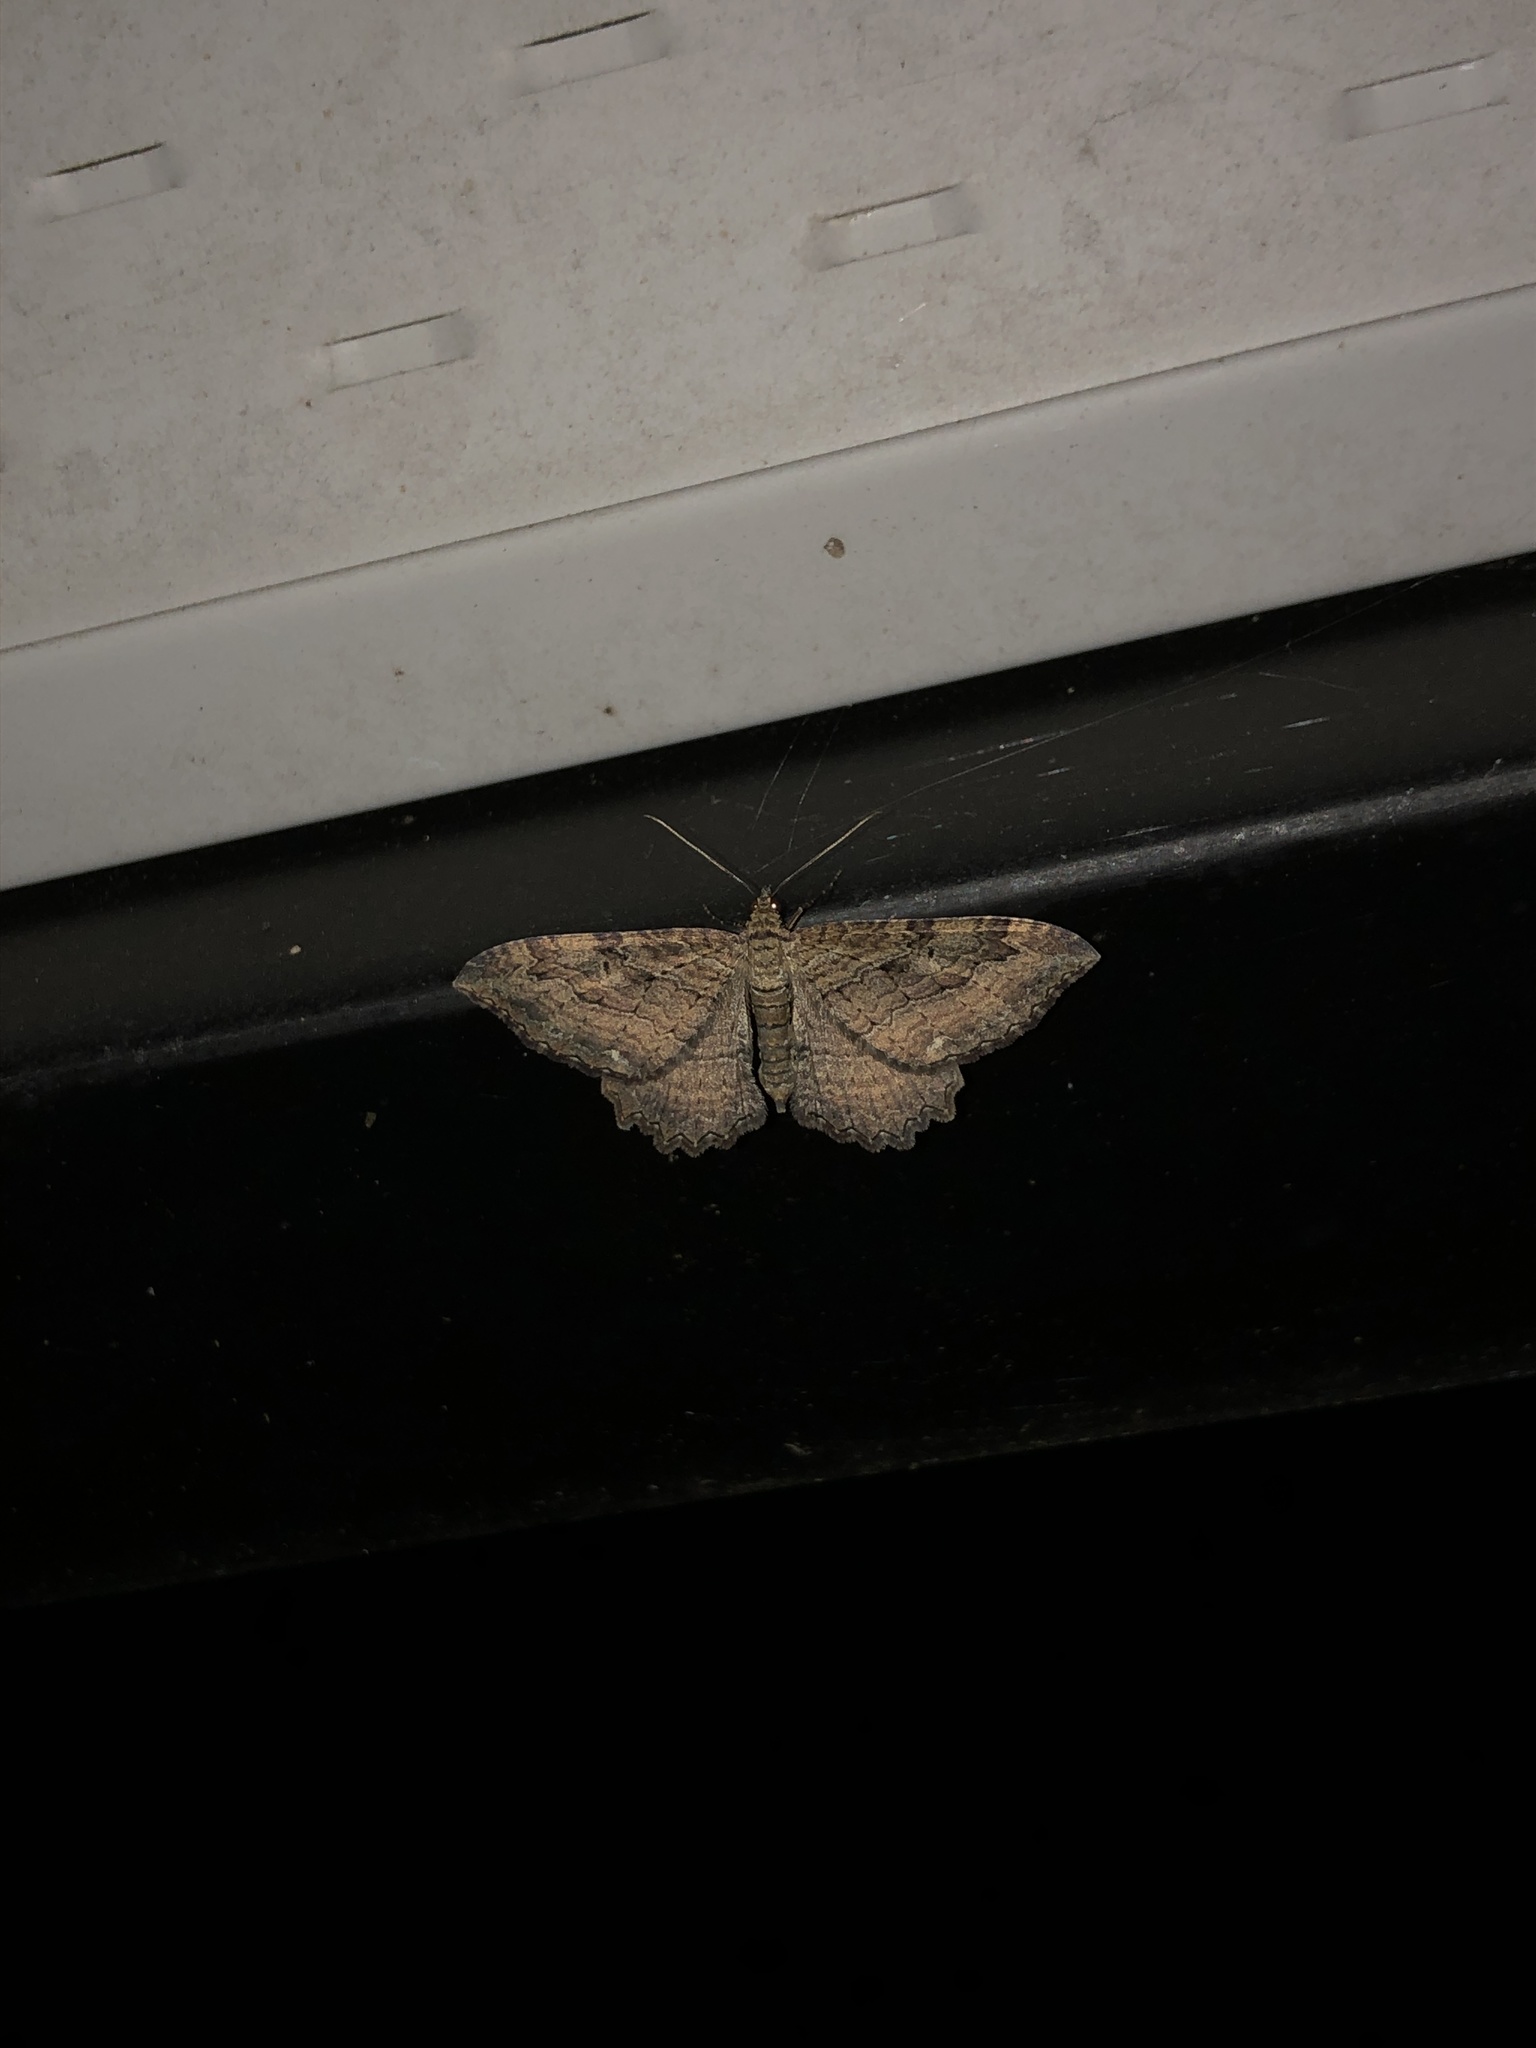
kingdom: Animalia
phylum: Arthropoda
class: Insecta
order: Lepidoptera
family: Geometridae
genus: Rheumaptera
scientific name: Rheumaptera
